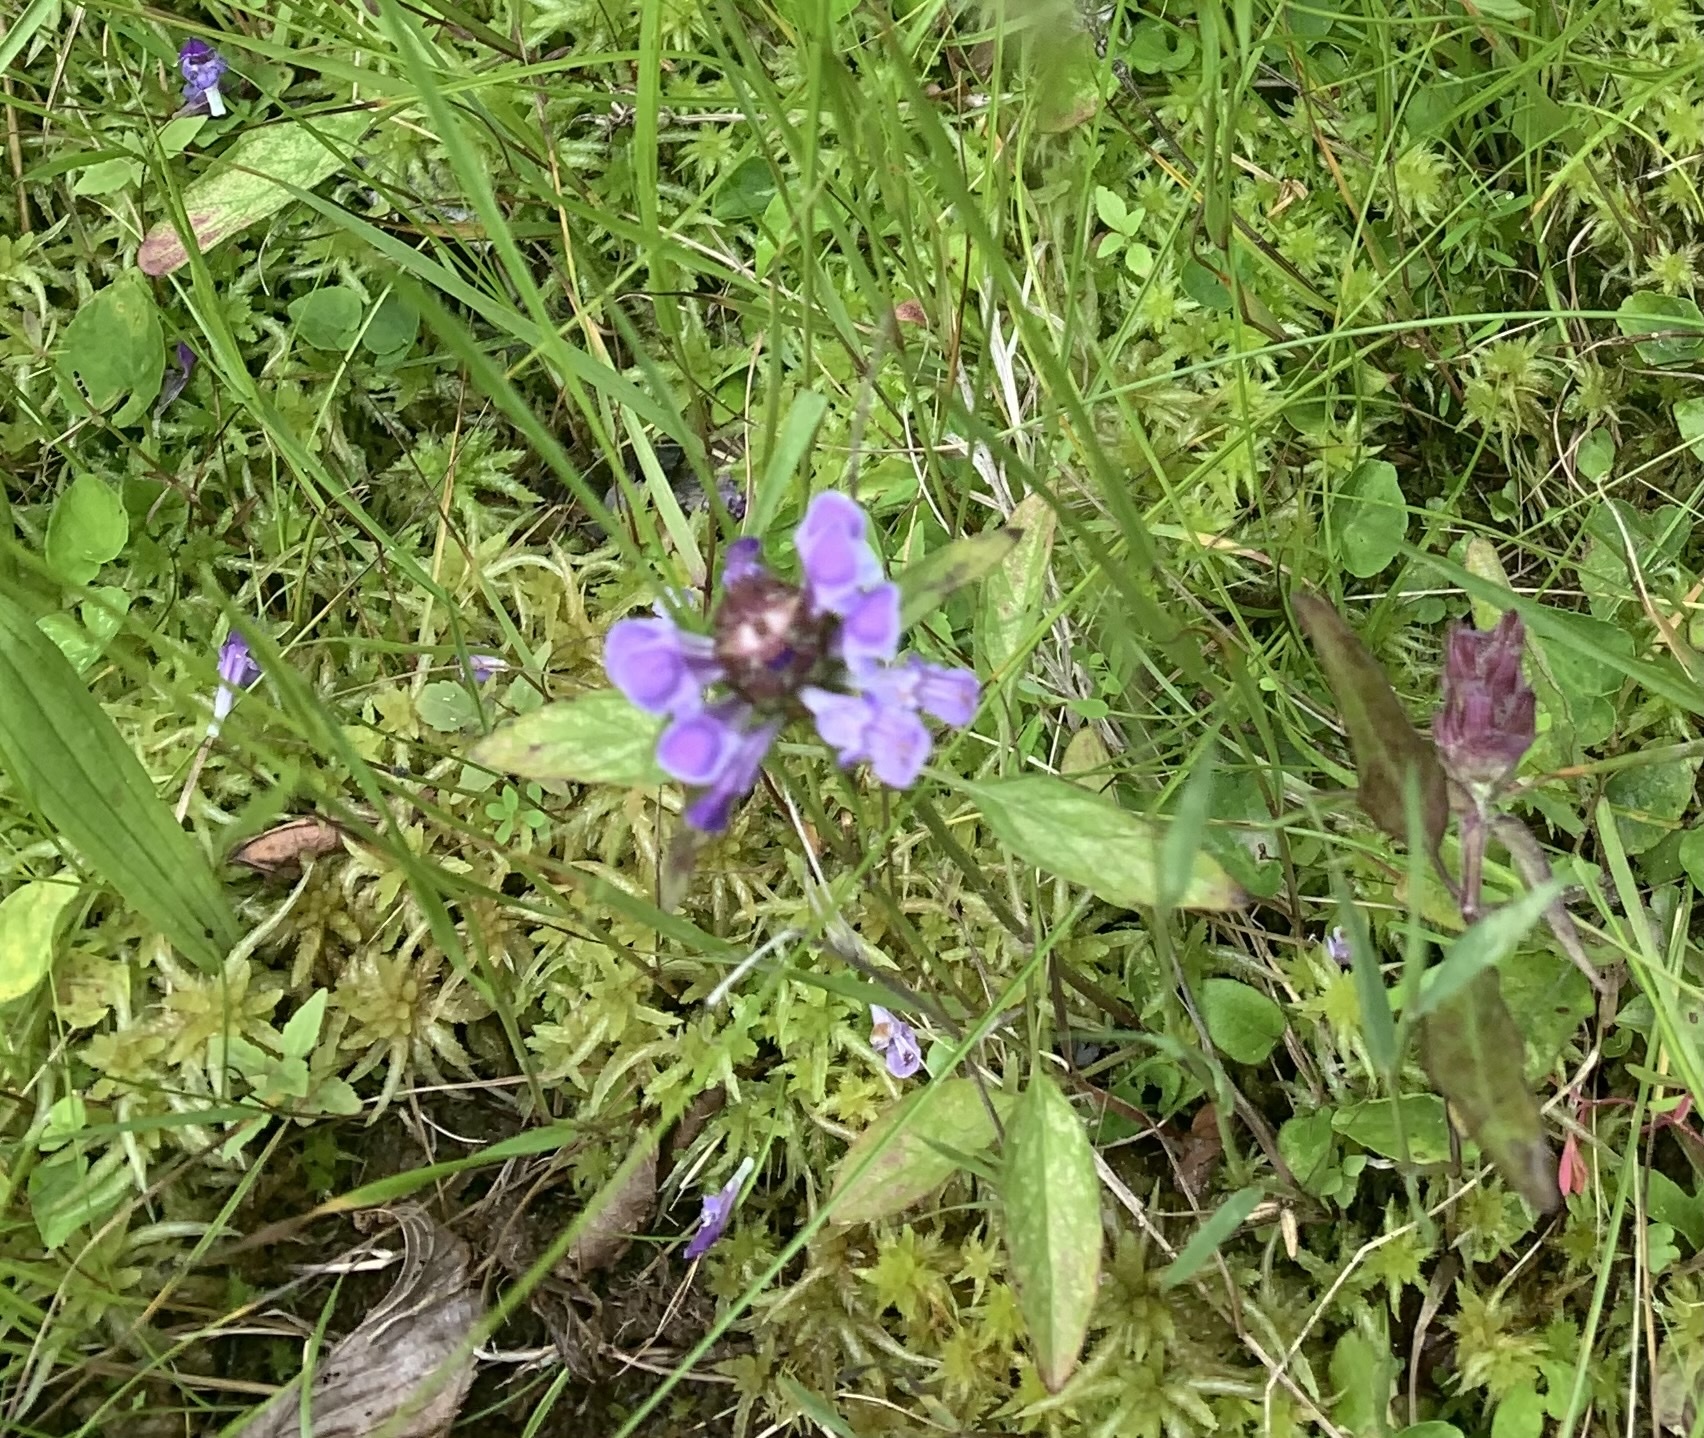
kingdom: Plantae
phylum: Tracheophyta
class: Magnoliopsida
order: Lamiales
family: Lamiaceae
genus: Prunella
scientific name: Prunella vulgaris
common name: Heal-all
